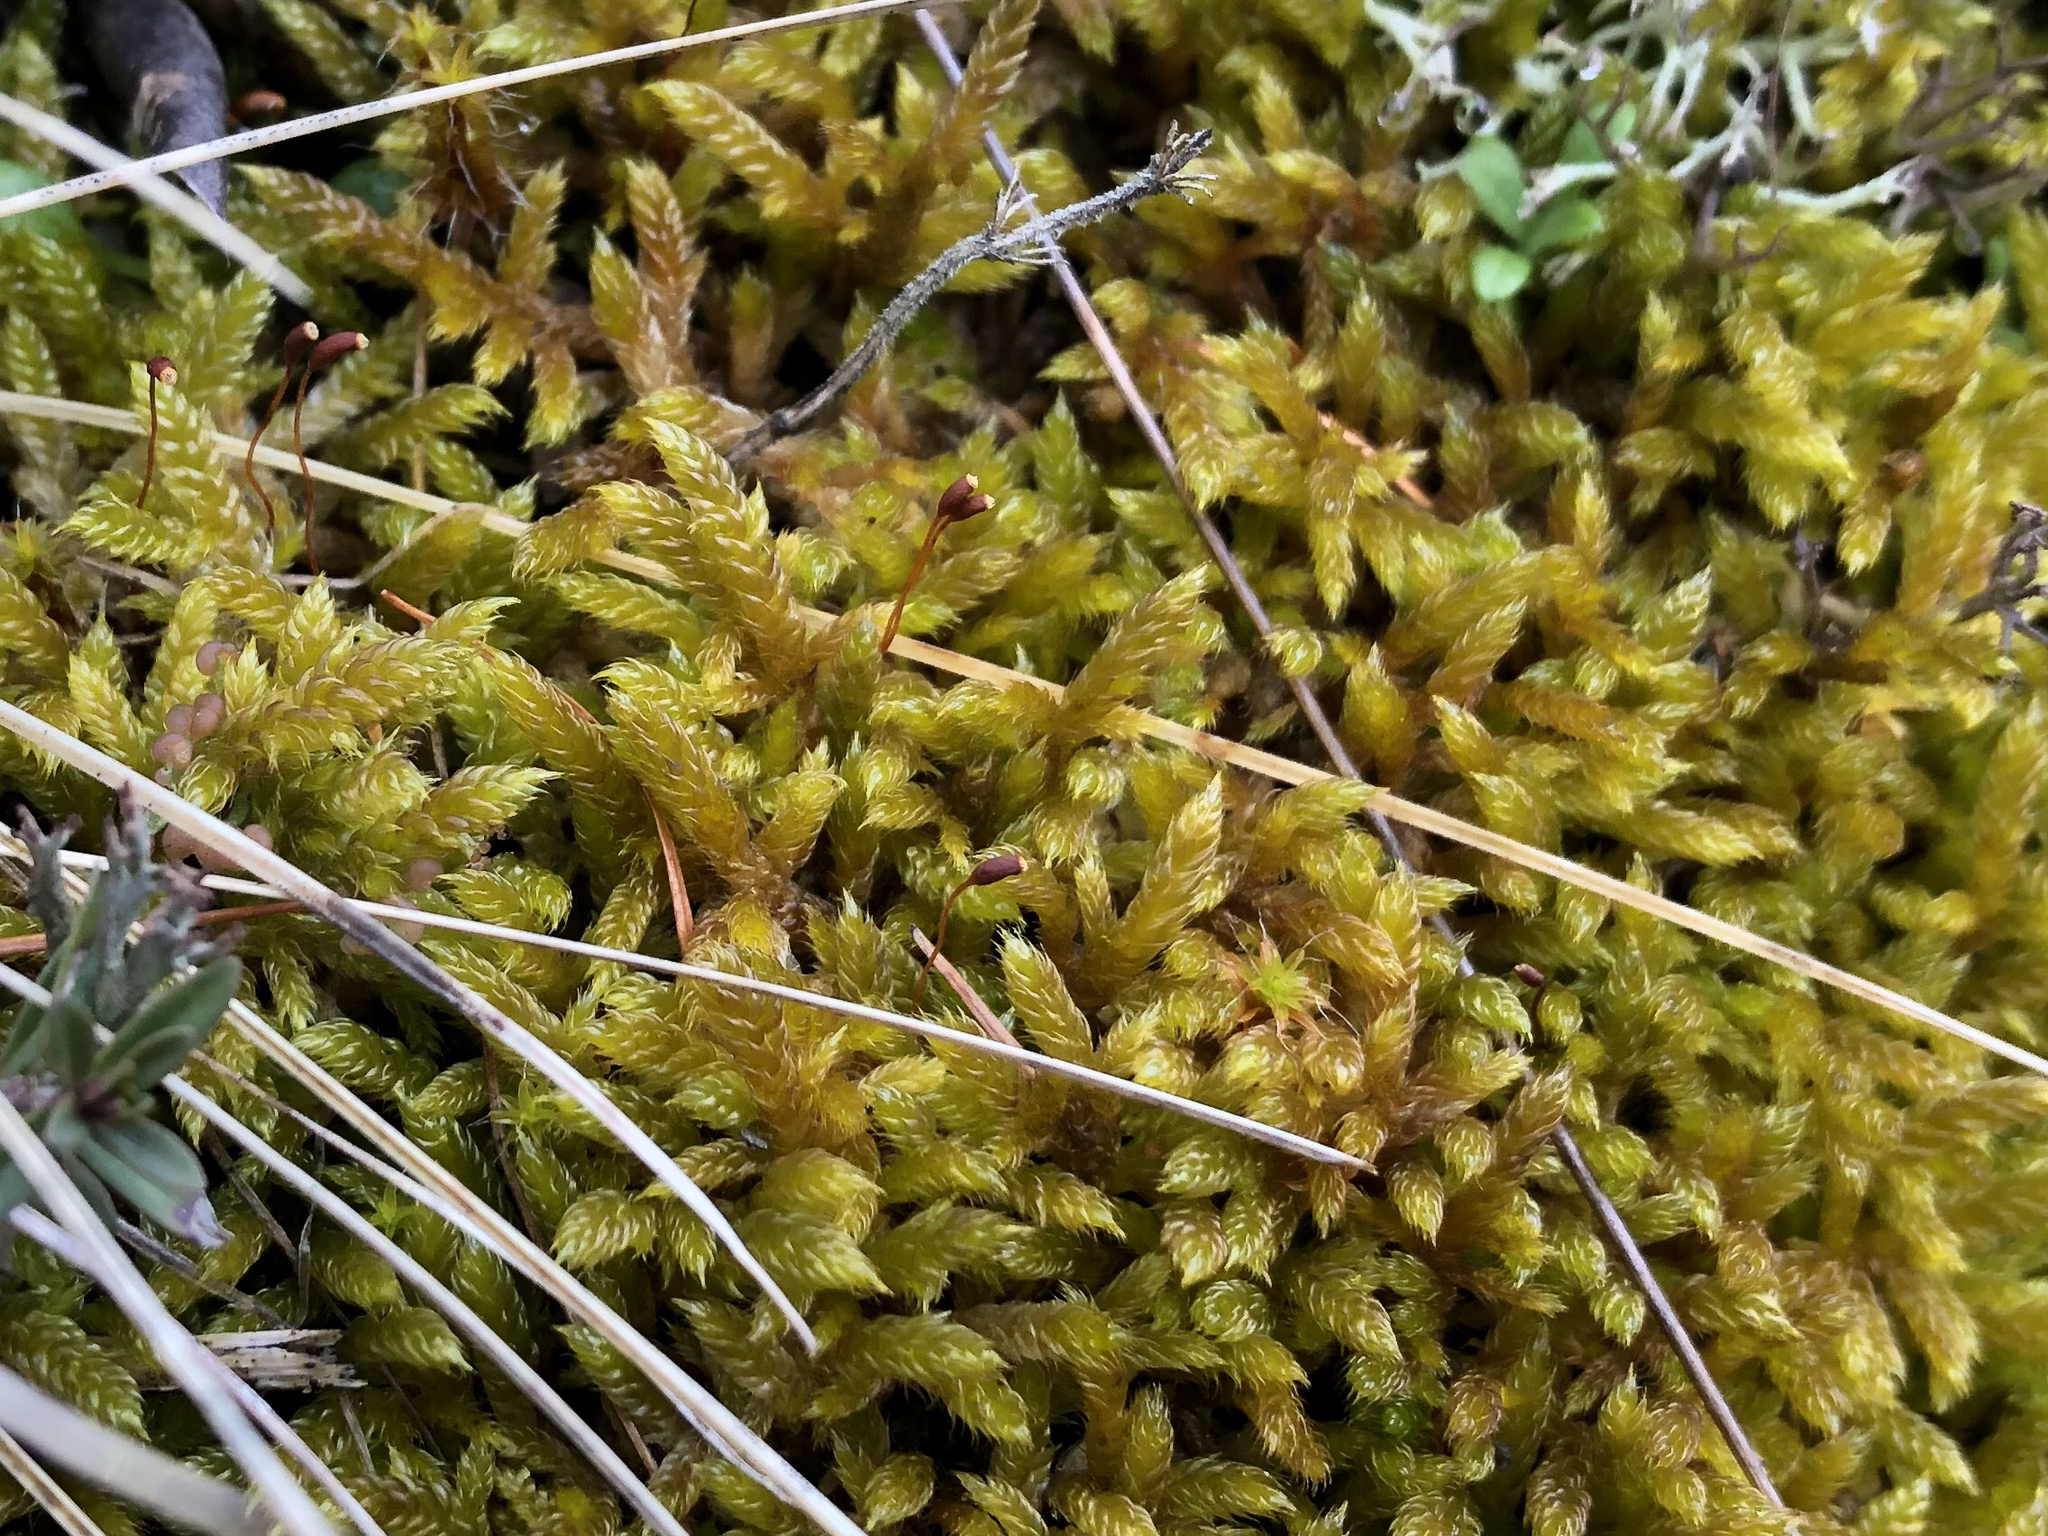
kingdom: Plantae
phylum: Bryophyta
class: Bryopsida
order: Hypnales
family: Hypnaceae
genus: Hypnum
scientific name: Hypnum cupressiforme
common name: Cypress-leaved plait-moss
